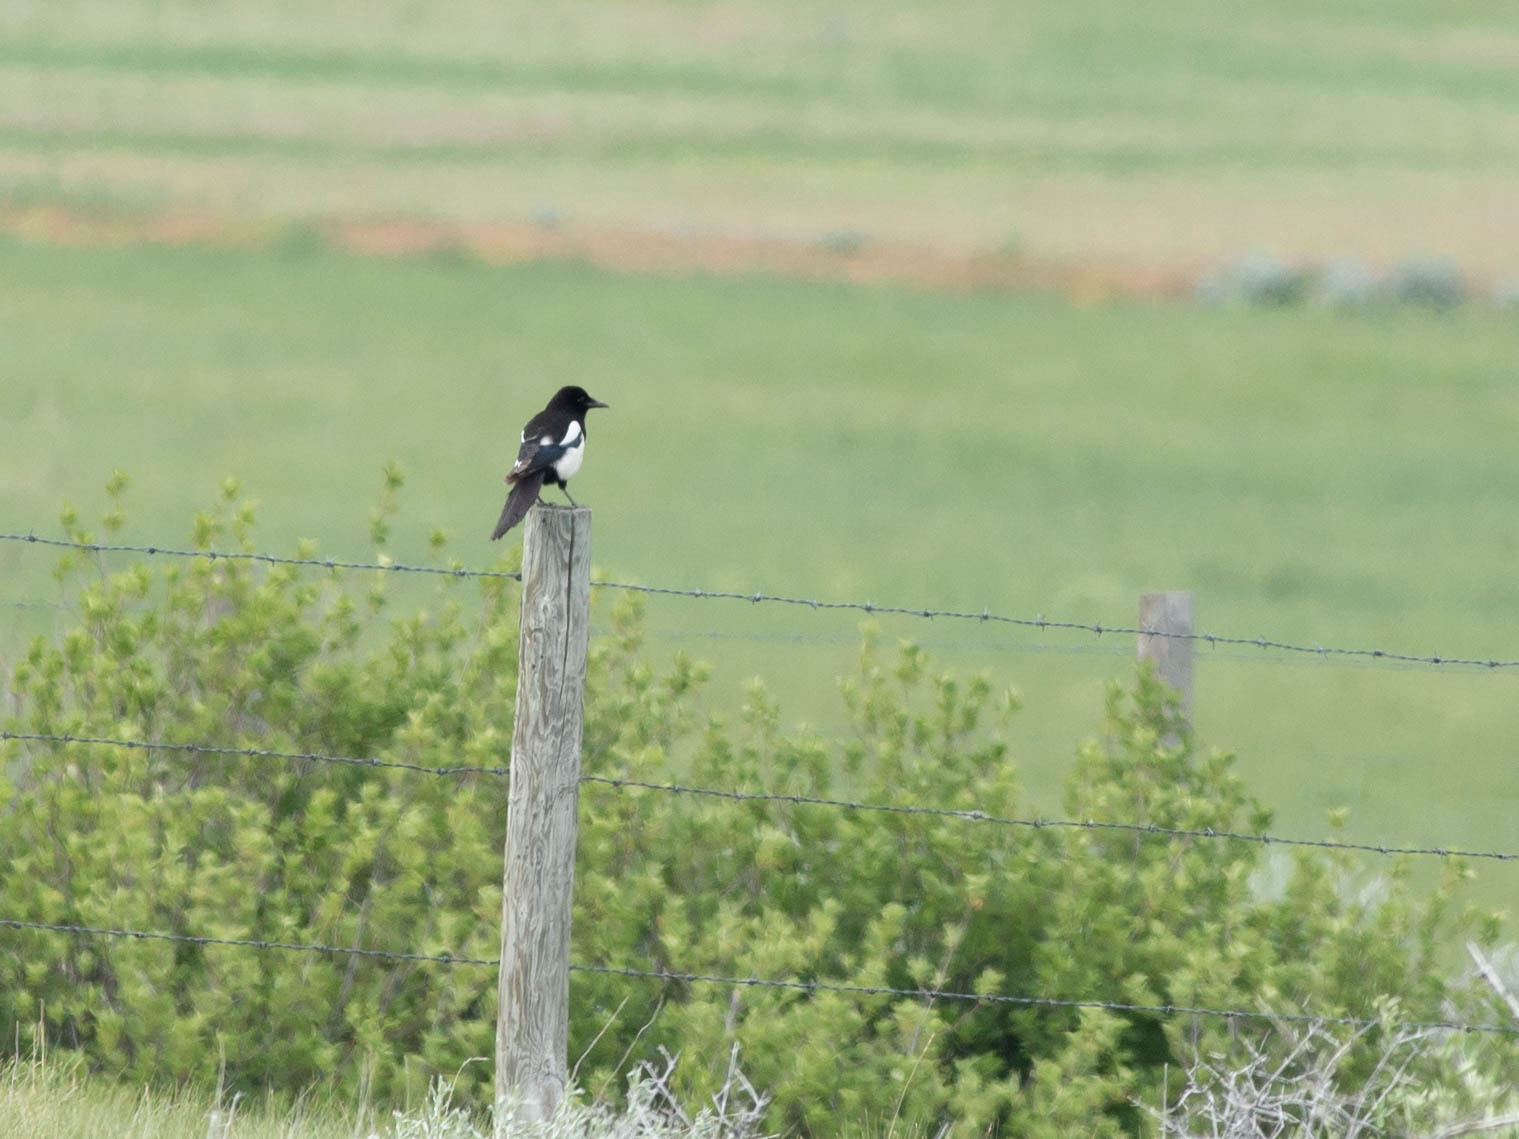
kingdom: Animalia
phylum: Chordata
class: Aves
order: Passeriformes
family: Corvidae
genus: Pica
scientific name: Pica hudsonia
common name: Black-billed magpie
